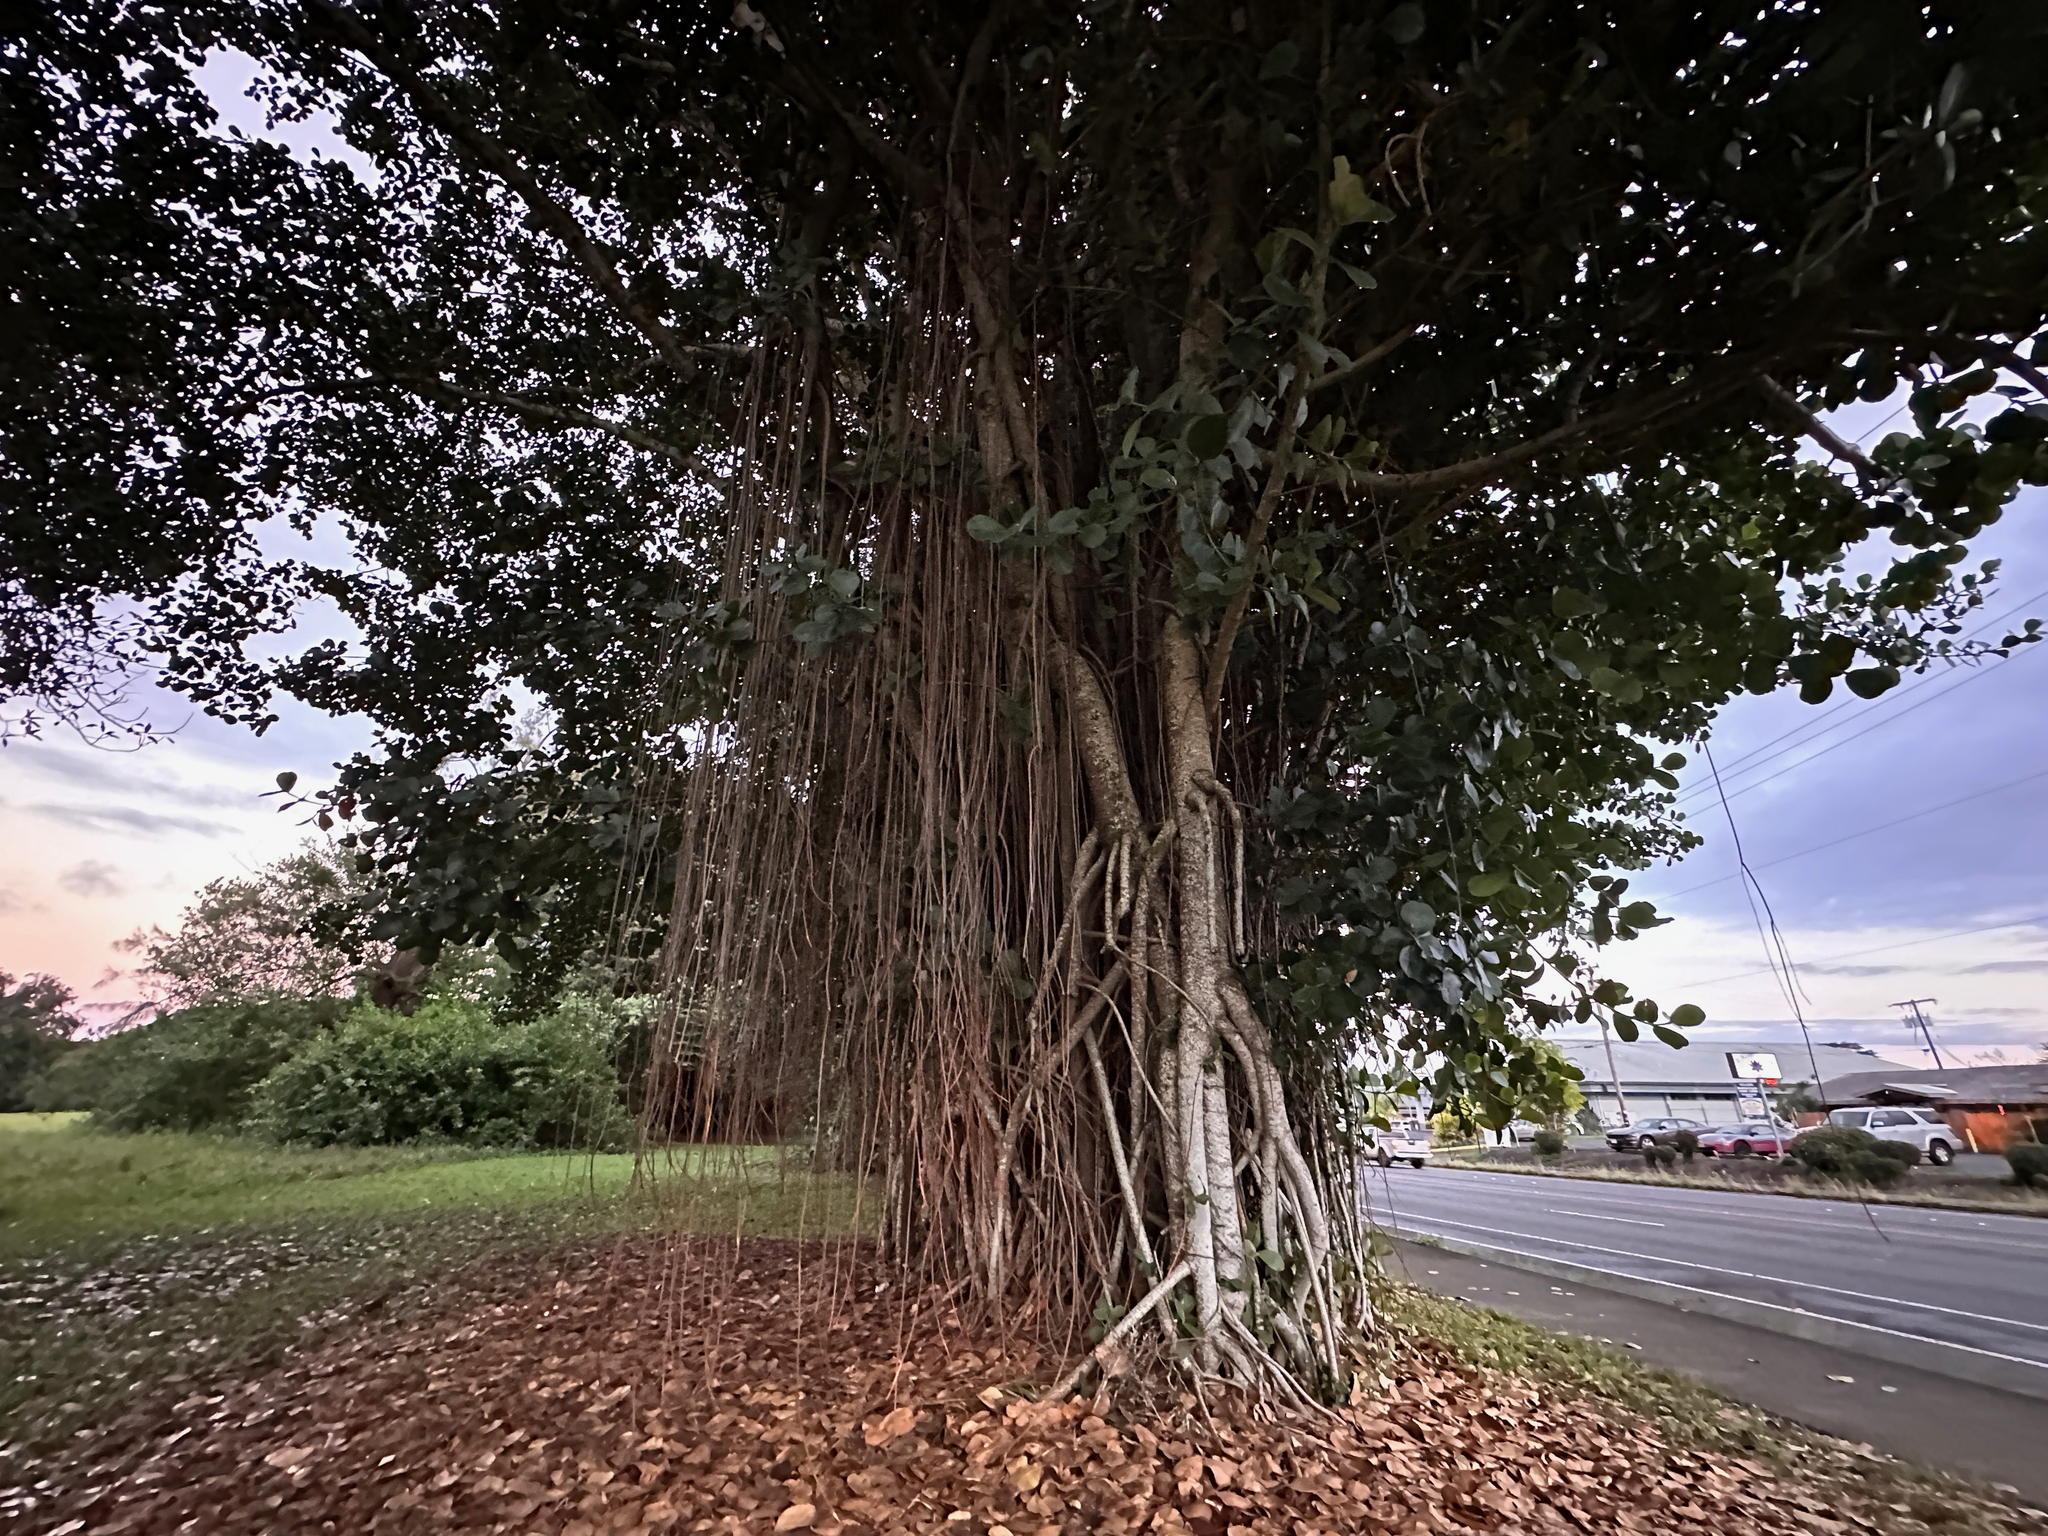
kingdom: Plantae
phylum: Tracheophyta
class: Magnoliopsida
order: Malpighiales
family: Clusiaceae
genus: Clusia
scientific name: Clusia rosea
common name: Scotch attorney
